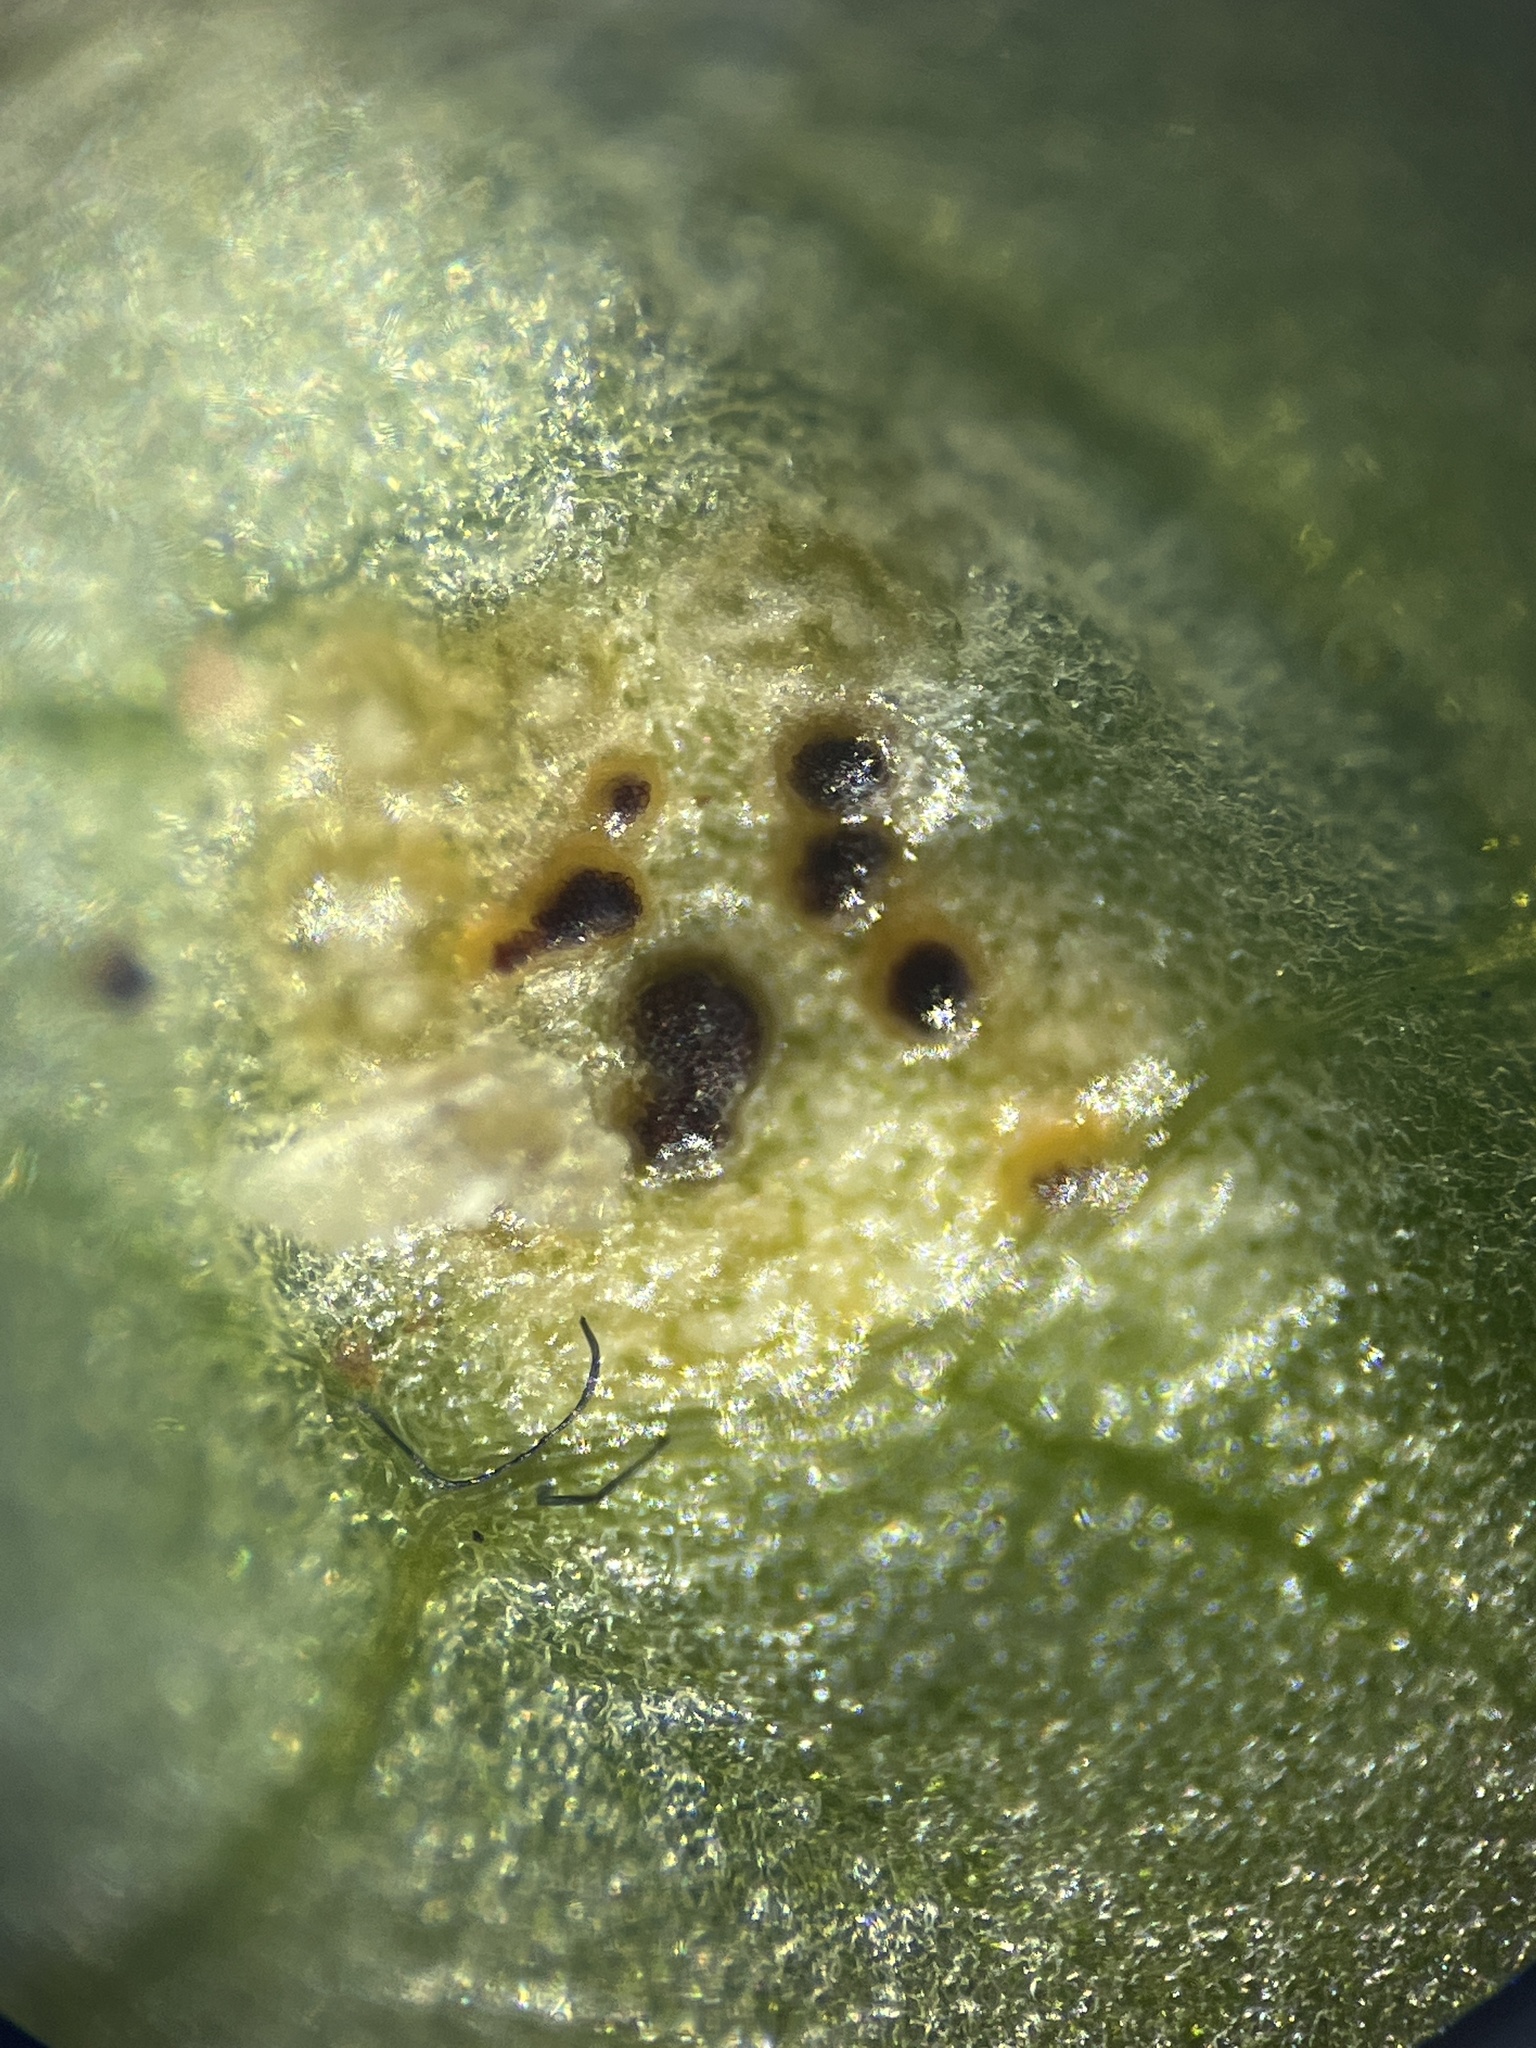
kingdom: Fungi
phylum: Basidiomycota
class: Pucciniomycetes
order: Pucciniales
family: Pucciniaceae
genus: Uromyces
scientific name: Uromyces ficariae
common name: Bitter chocolate rust
